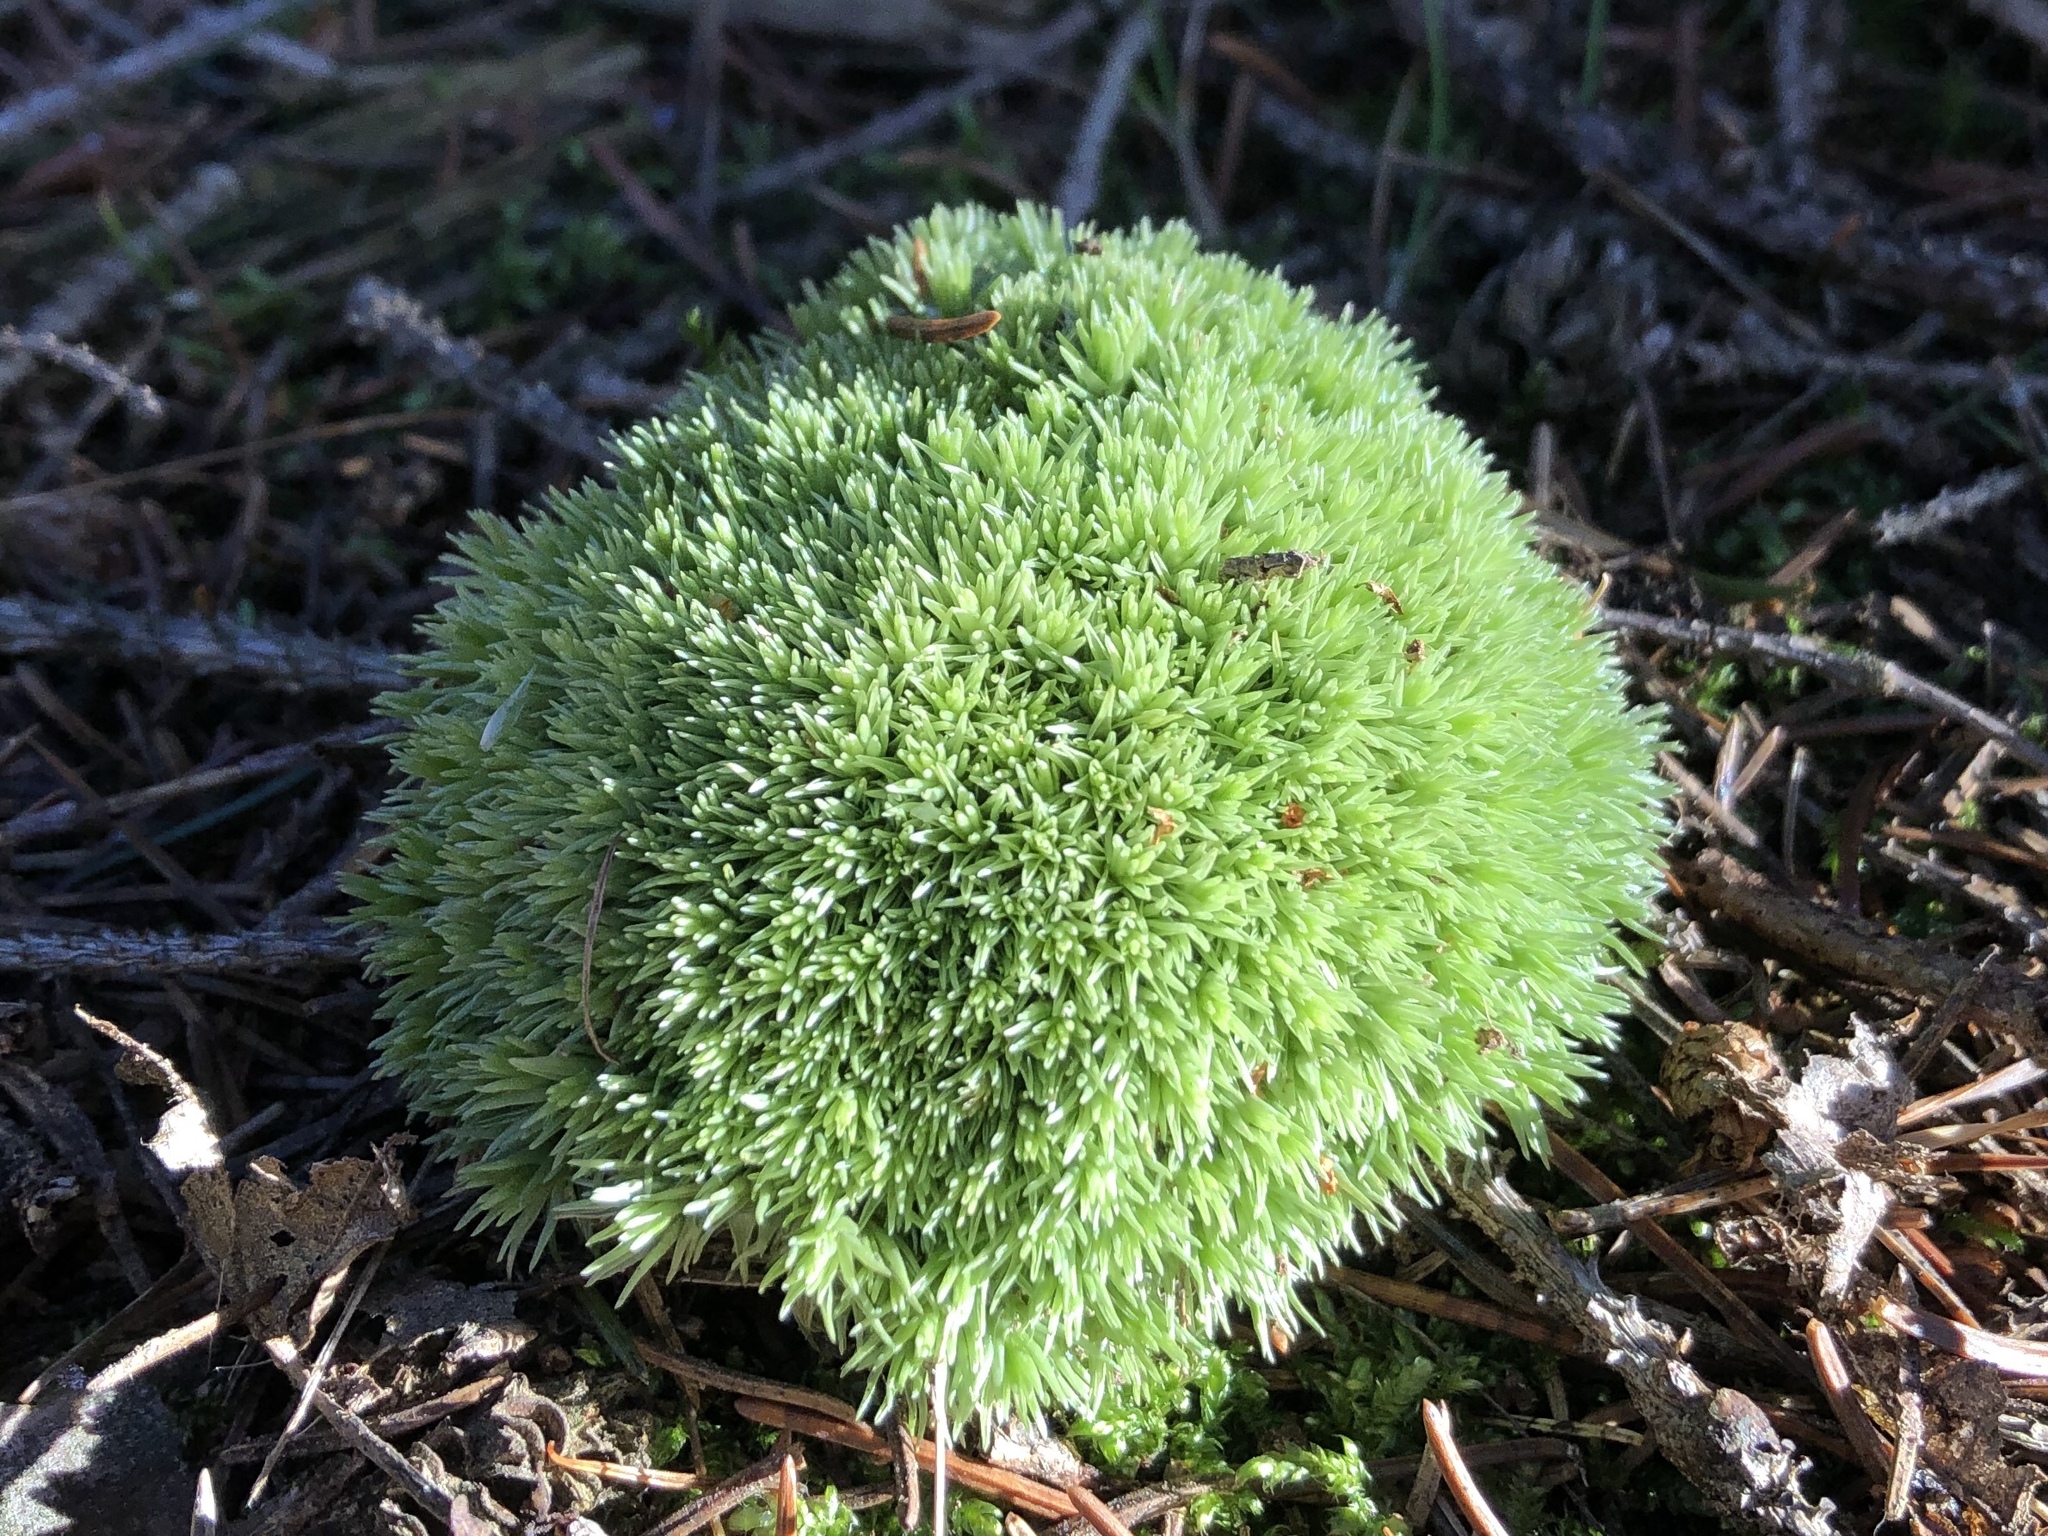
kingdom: Plantae
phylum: Bryophyta
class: Bryopsida
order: Dicranales
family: Leucobryaceae
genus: Leucobryum
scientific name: Leucobryum glaucum
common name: Large white-moss
